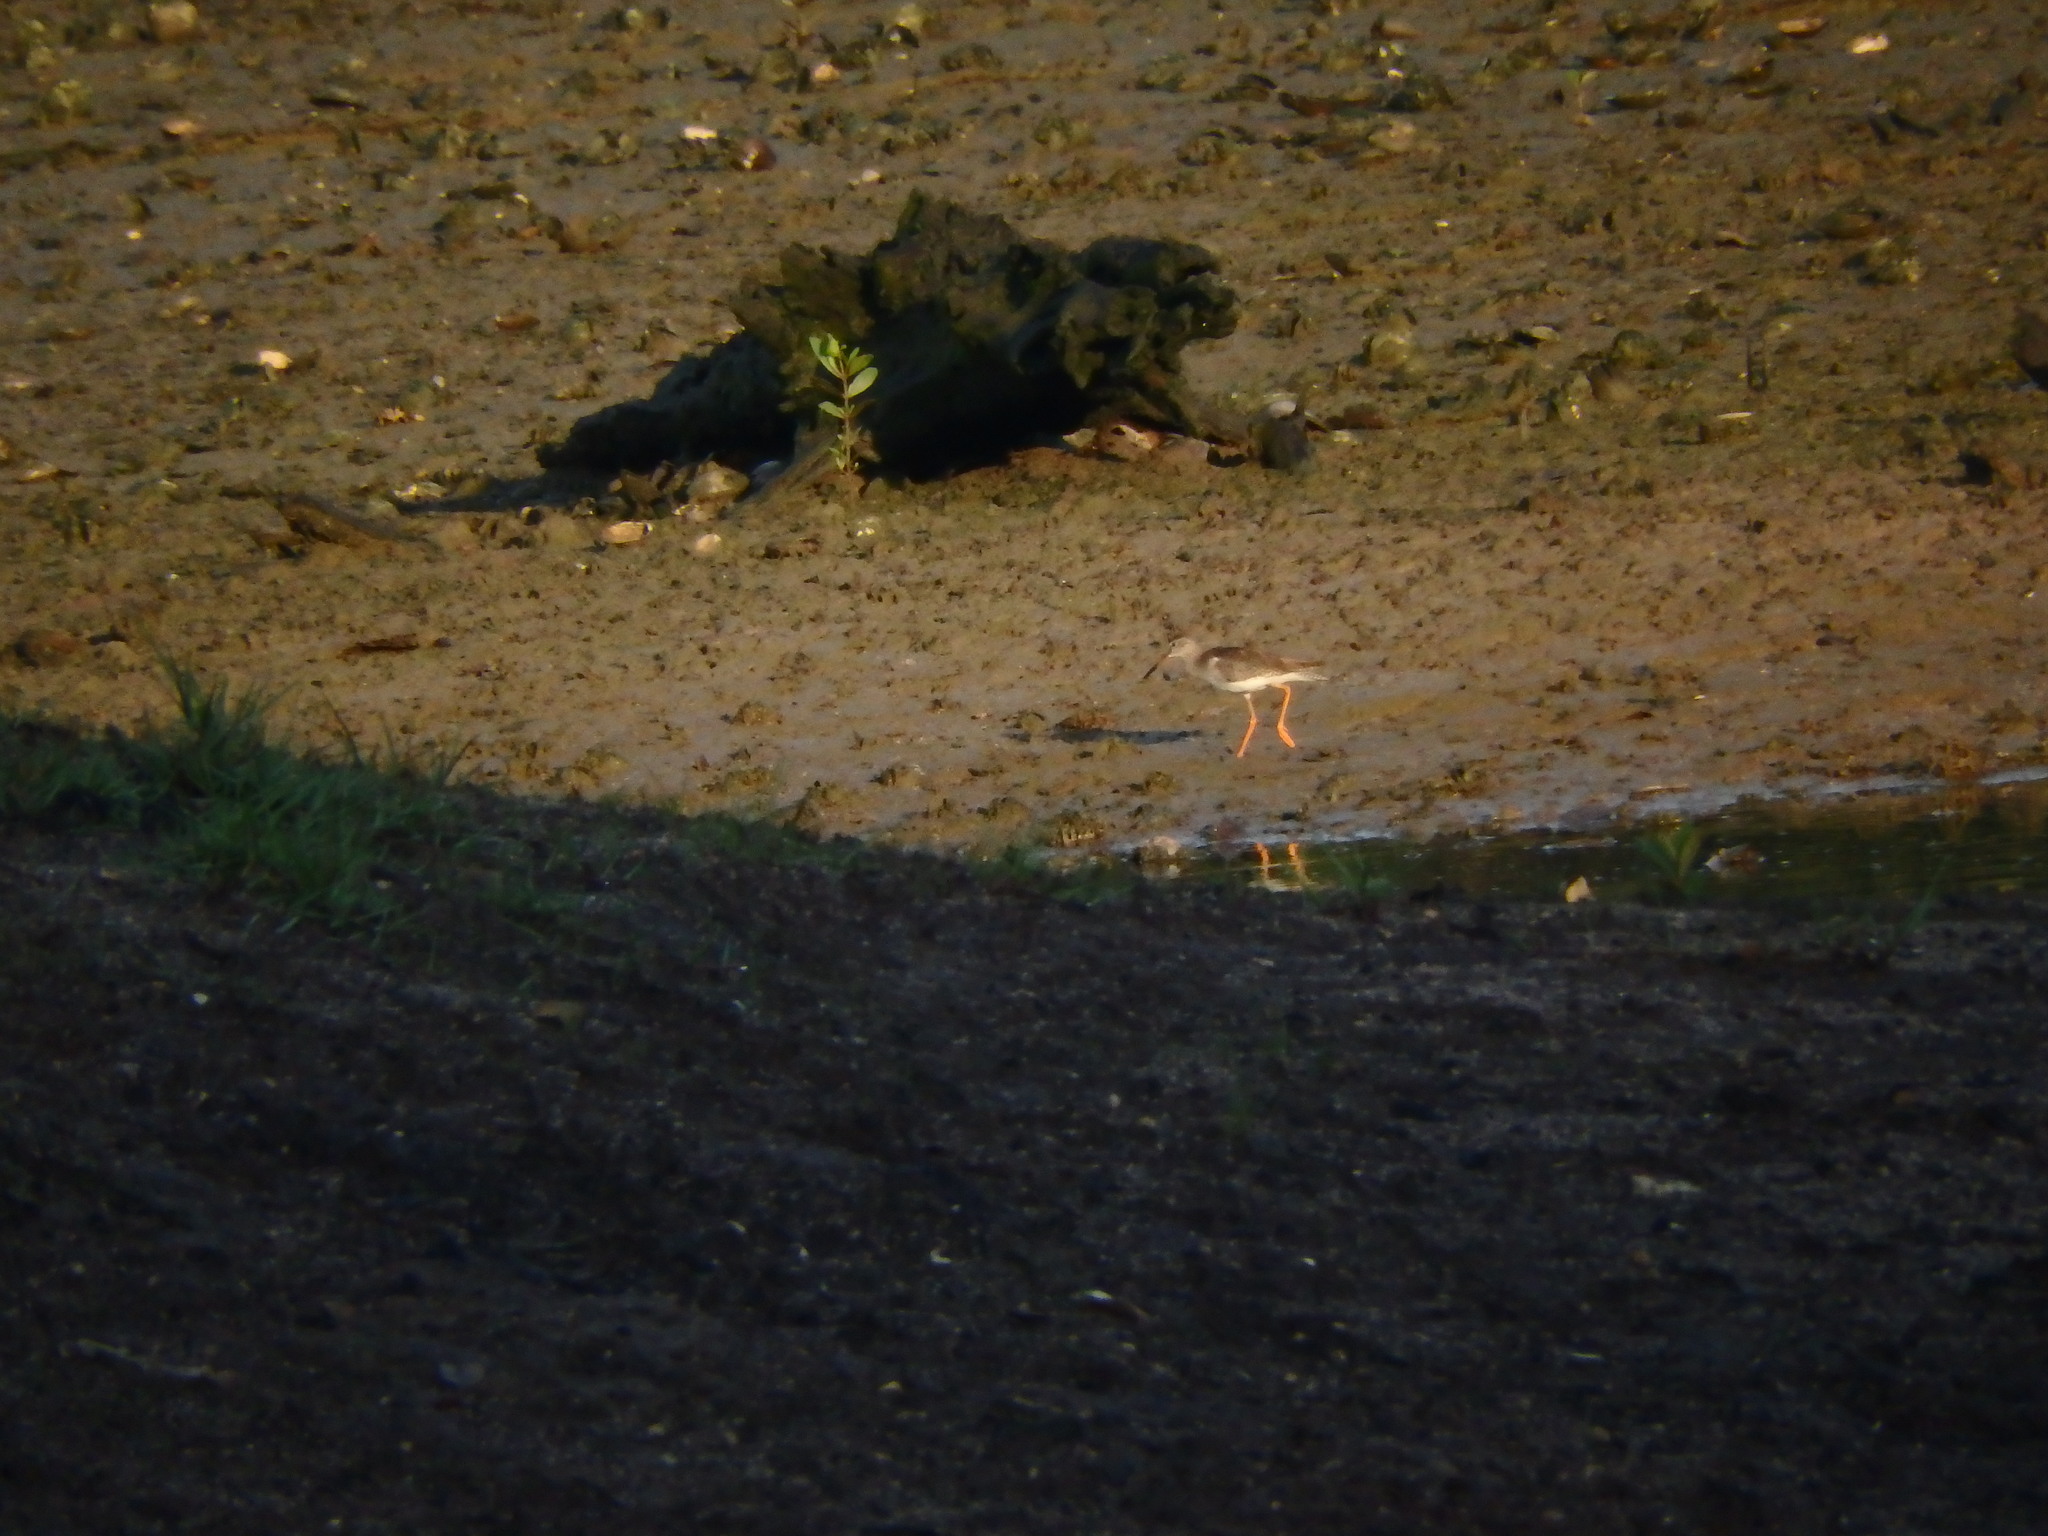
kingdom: Animalia
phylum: Chordata
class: Aves
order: Charadriiformes
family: Scolopacidae
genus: Tringa
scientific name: Tringa totanus
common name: Common redshank
